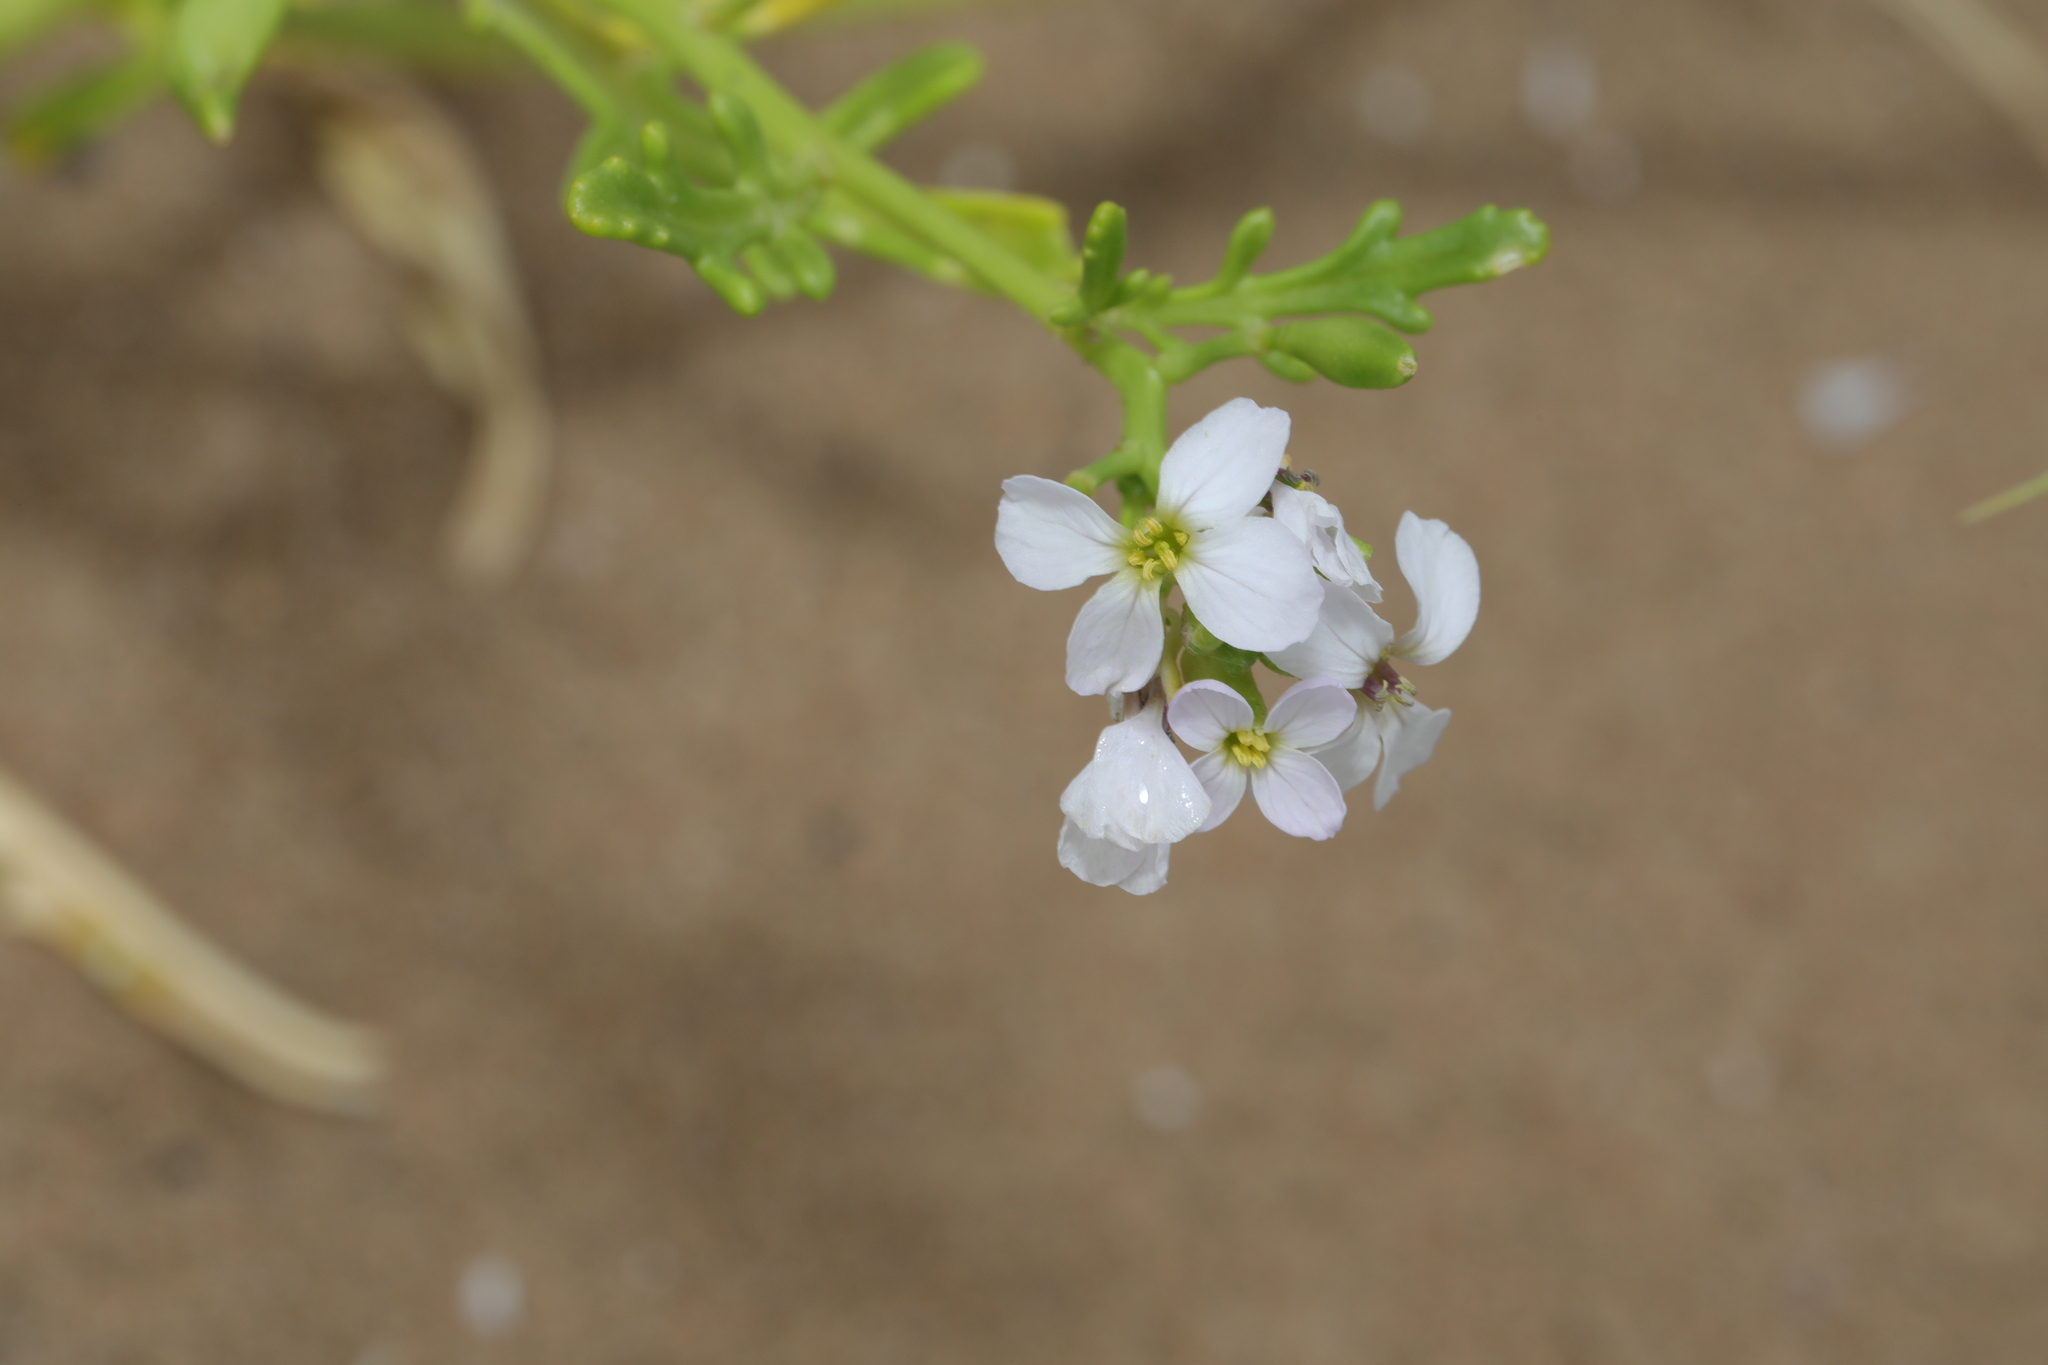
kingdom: Plantae
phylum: Tracheophyta
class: Magnoliopsida
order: Brassicales
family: Brassicaceae
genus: Cakile
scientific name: Cakile maritima
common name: Sea rocket
